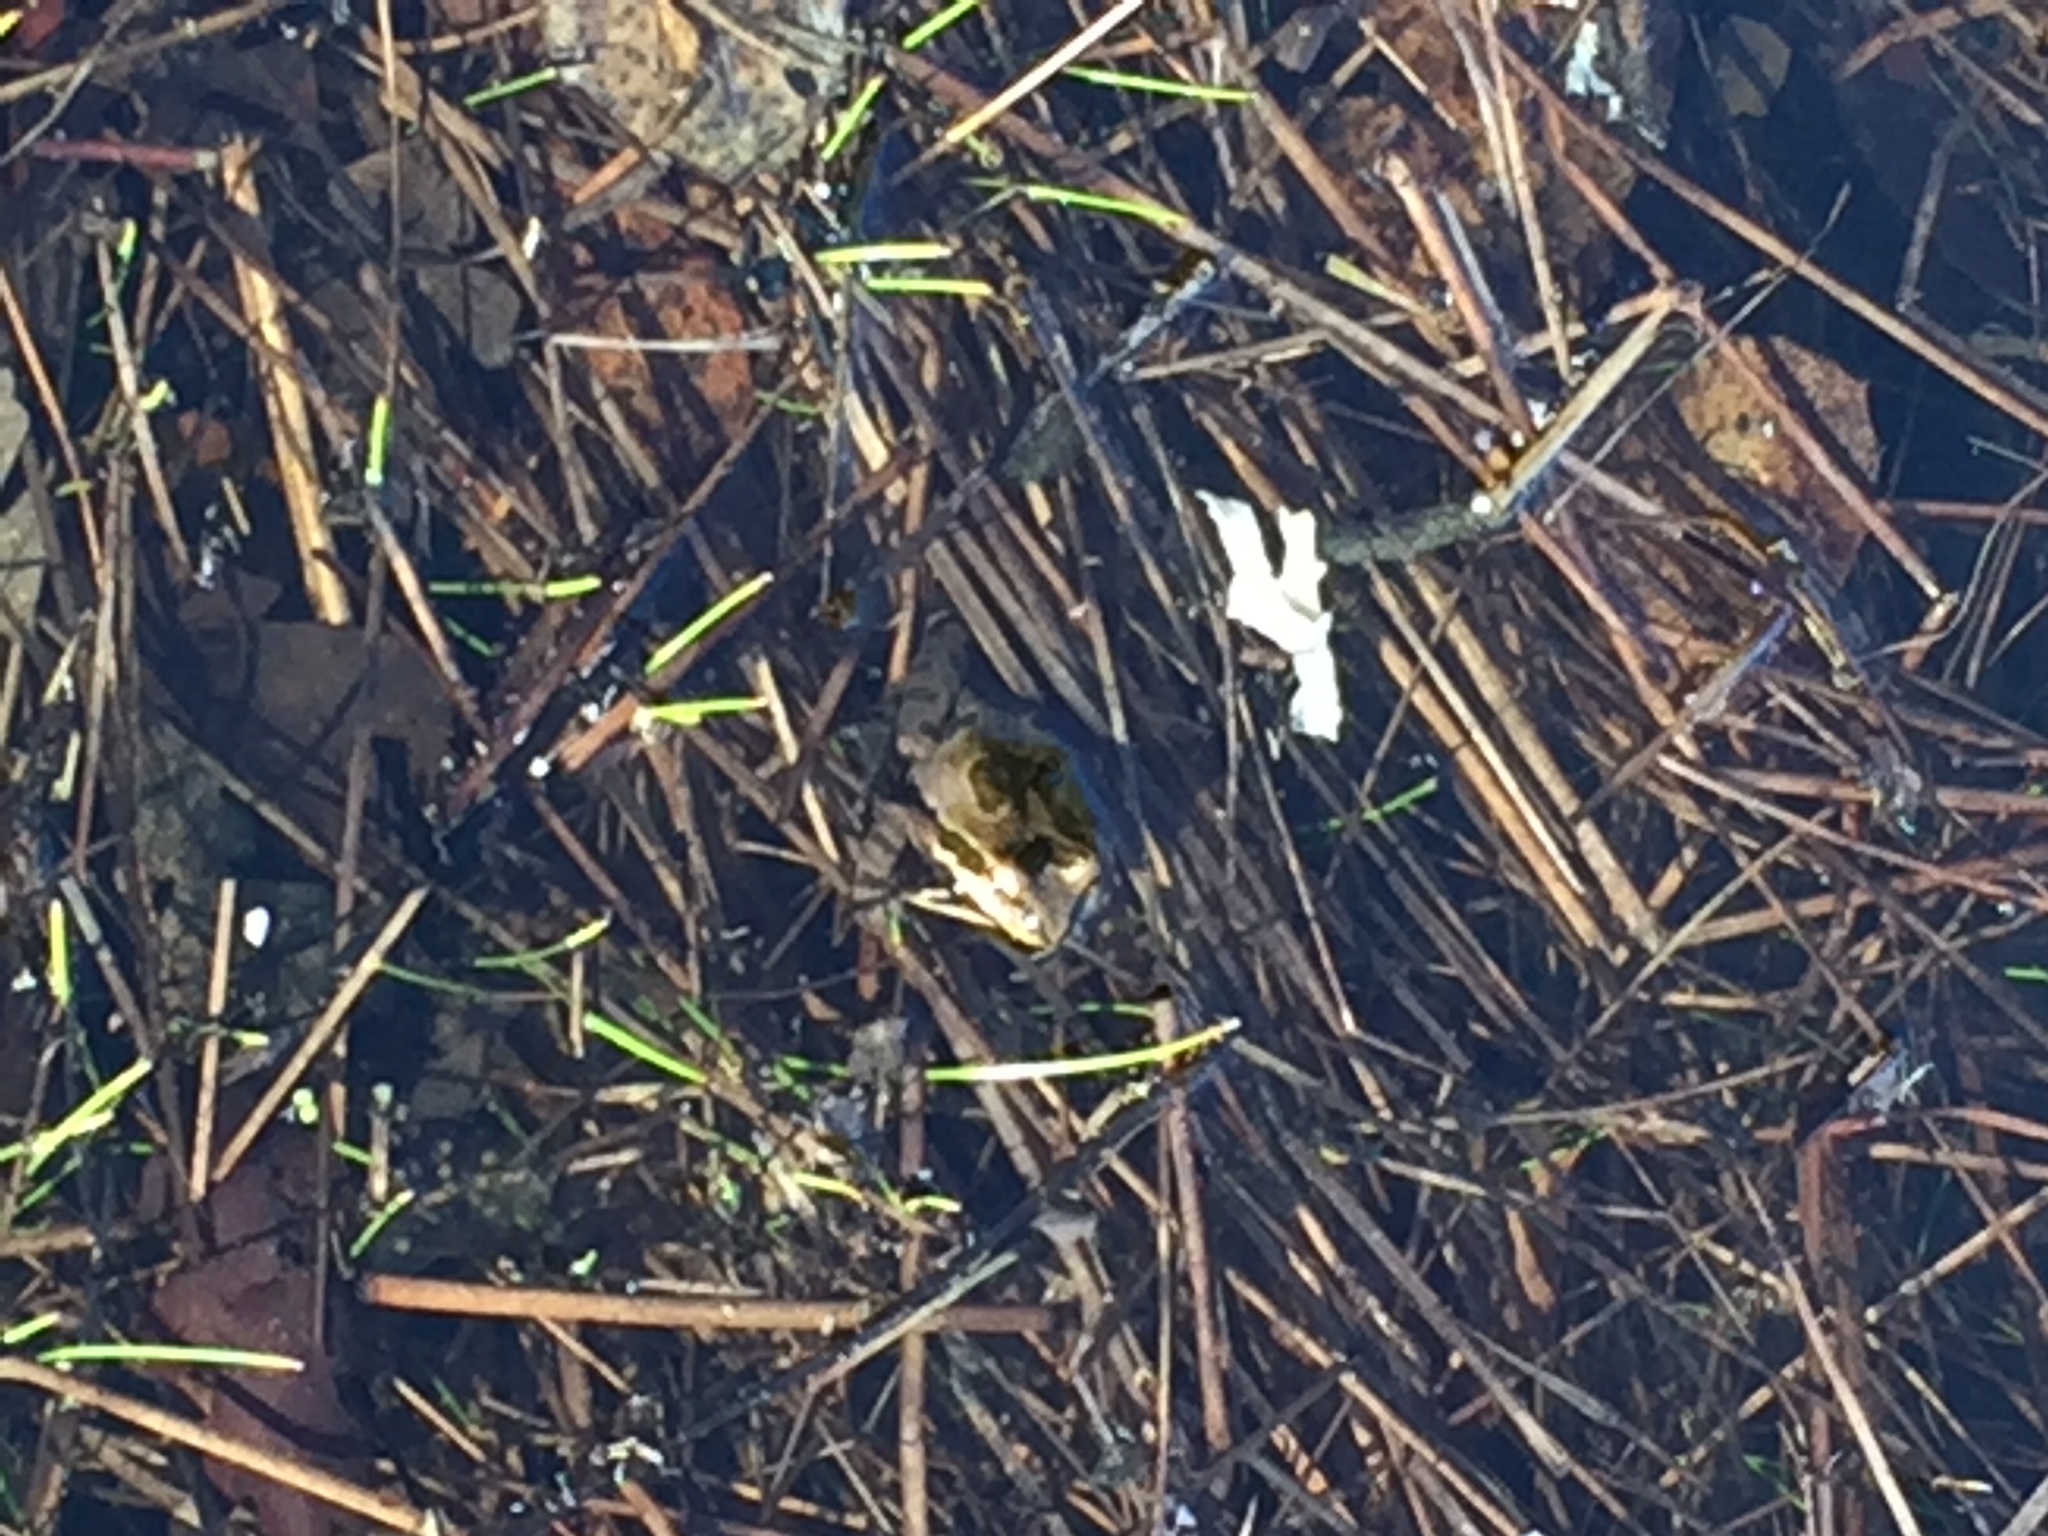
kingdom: Animalia
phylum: Chordata
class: Amphibia
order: Anura
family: Hylidae
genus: Pseudacris
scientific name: Pseudacris regilla
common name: Pacific chorus frog
